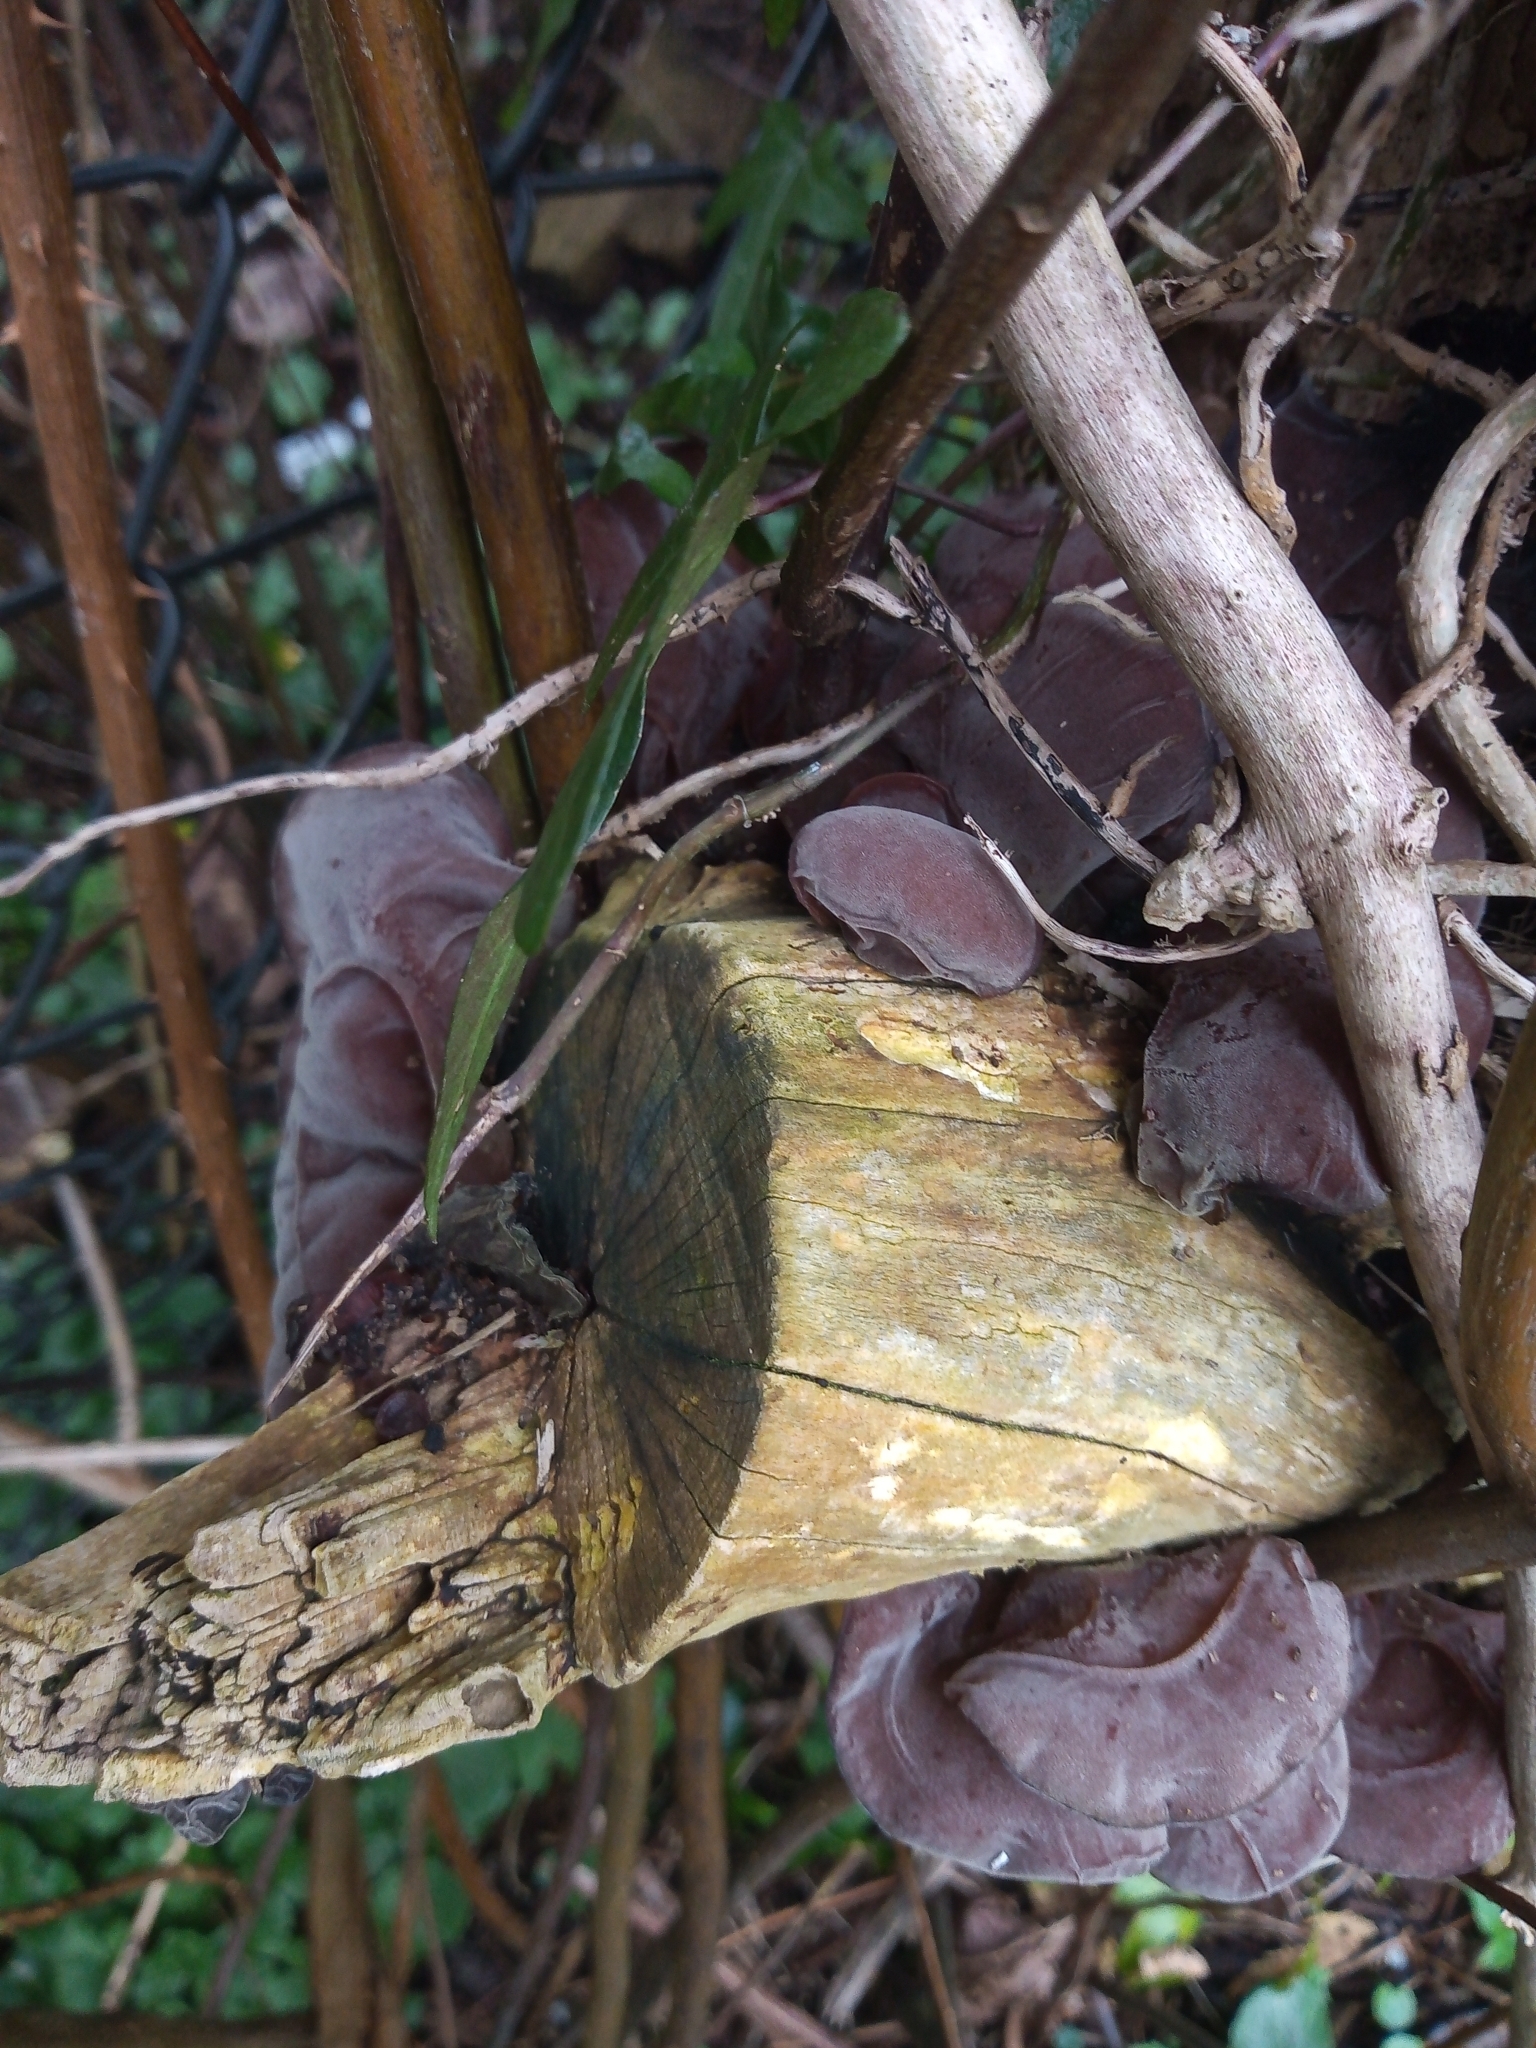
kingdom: Fungi
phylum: Basidiomycota
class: Agaricomycetes
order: Auriculariales
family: Auriculariaceae
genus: Auricularia
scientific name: Auricularia auricula-judae
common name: Jelly ear
